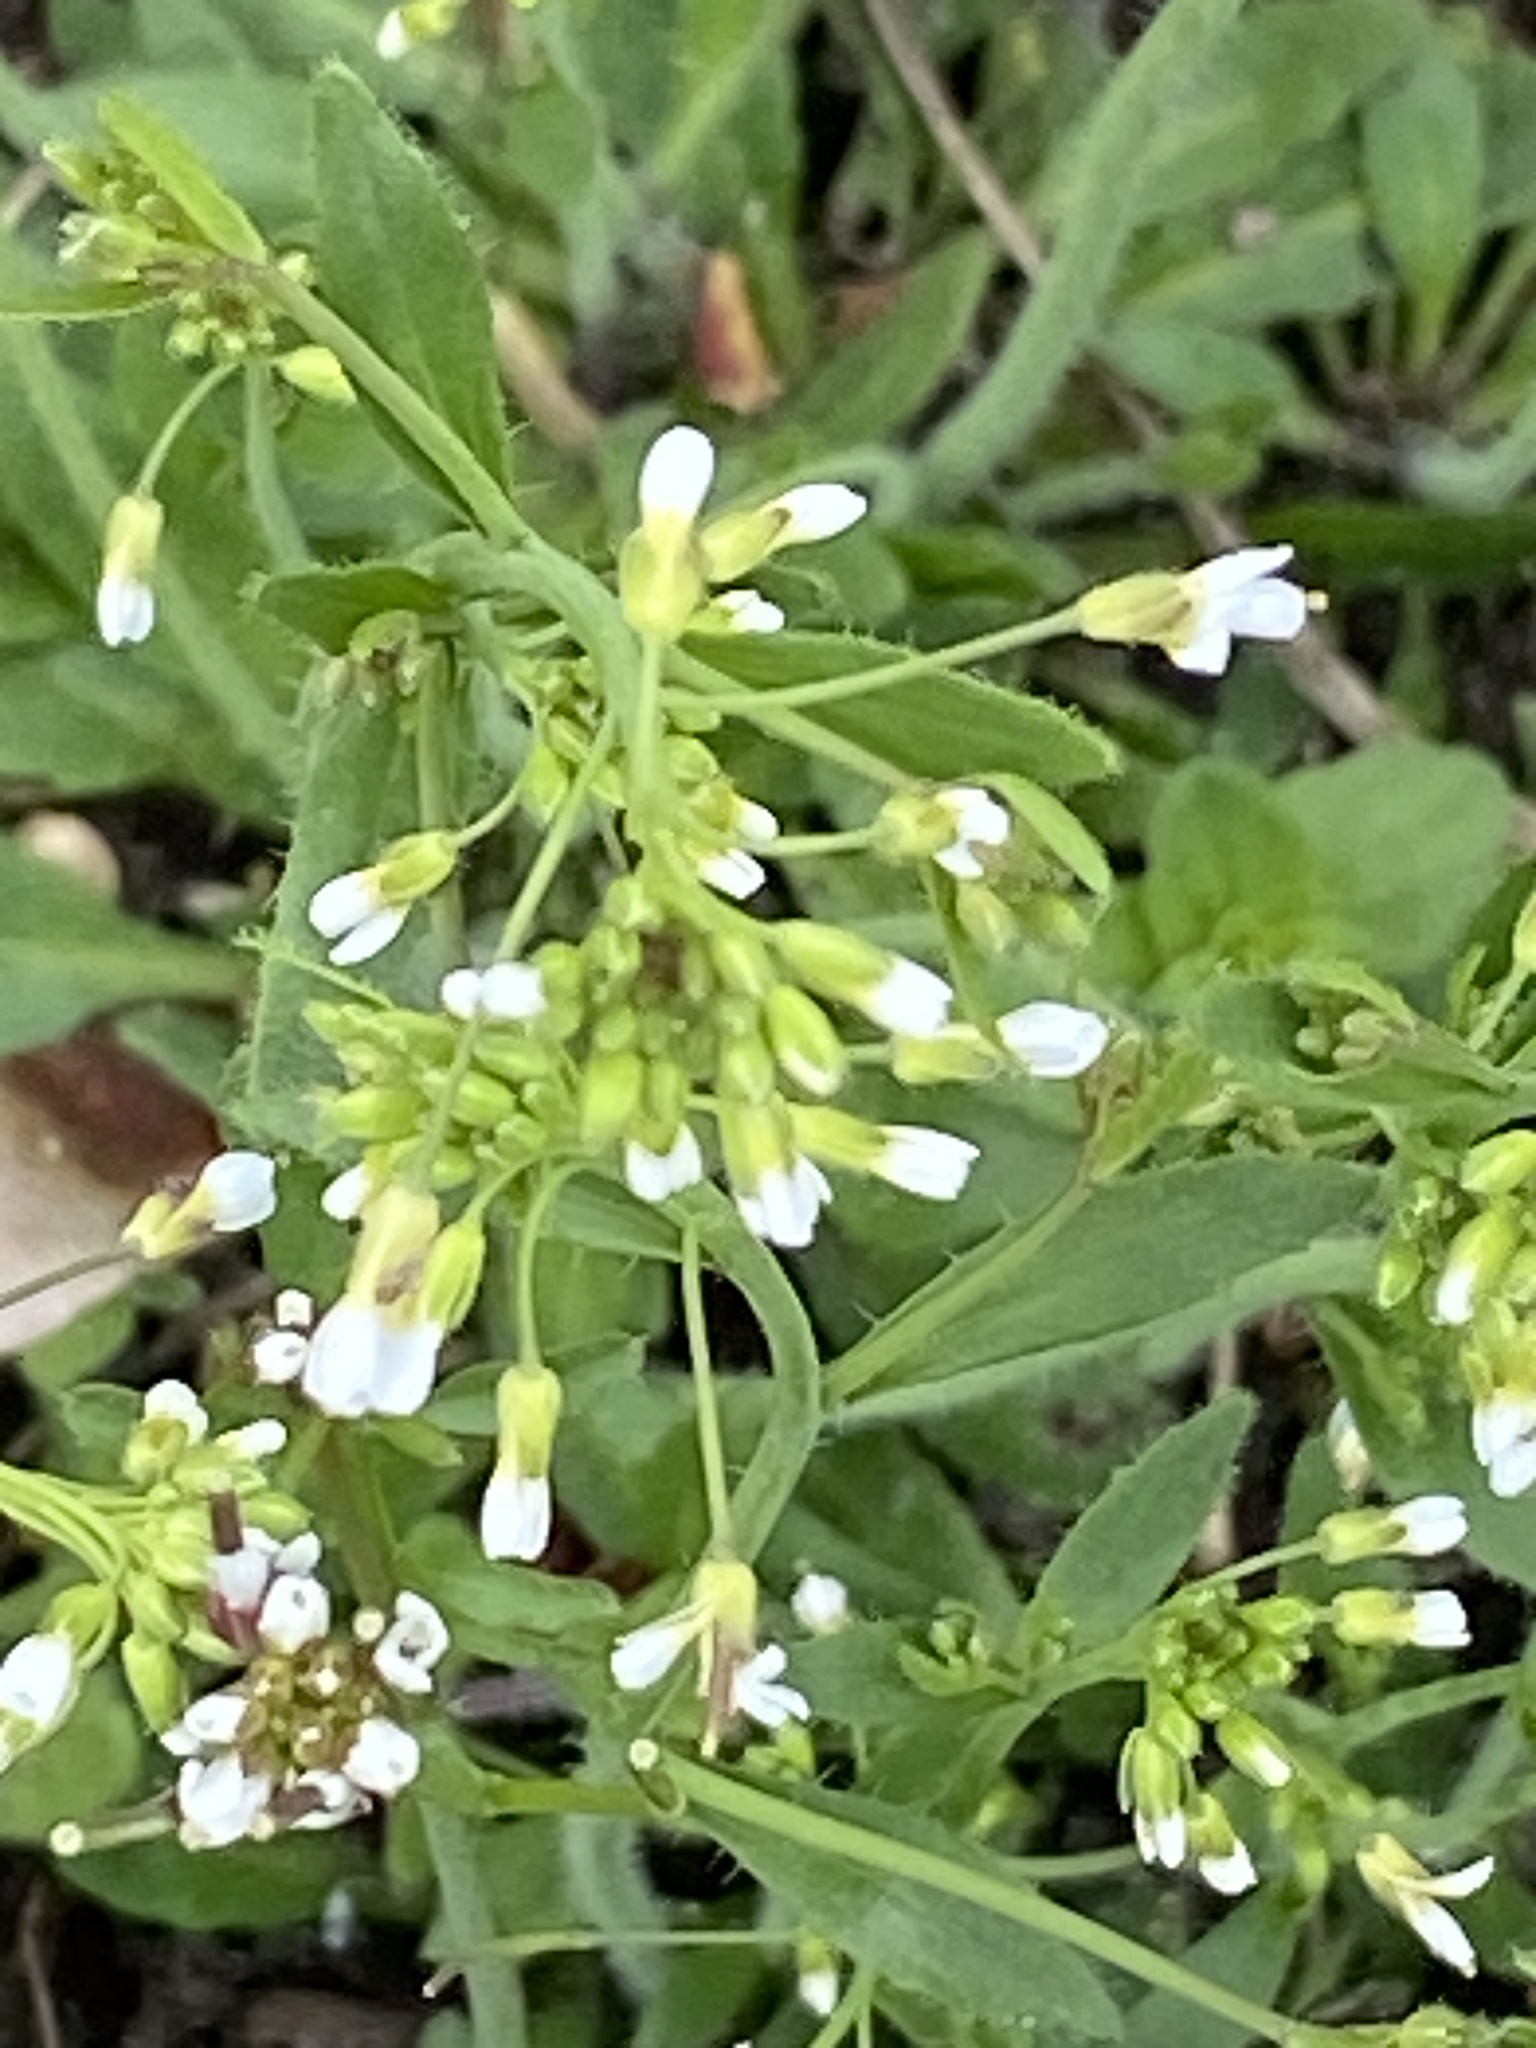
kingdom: Plantae
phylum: Tracheophyta
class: Magnoliopsida
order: Brassicales
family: Brassicaceae
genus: Arabidopsis
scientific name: Arabidopsis thaliana
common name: Thale cress
